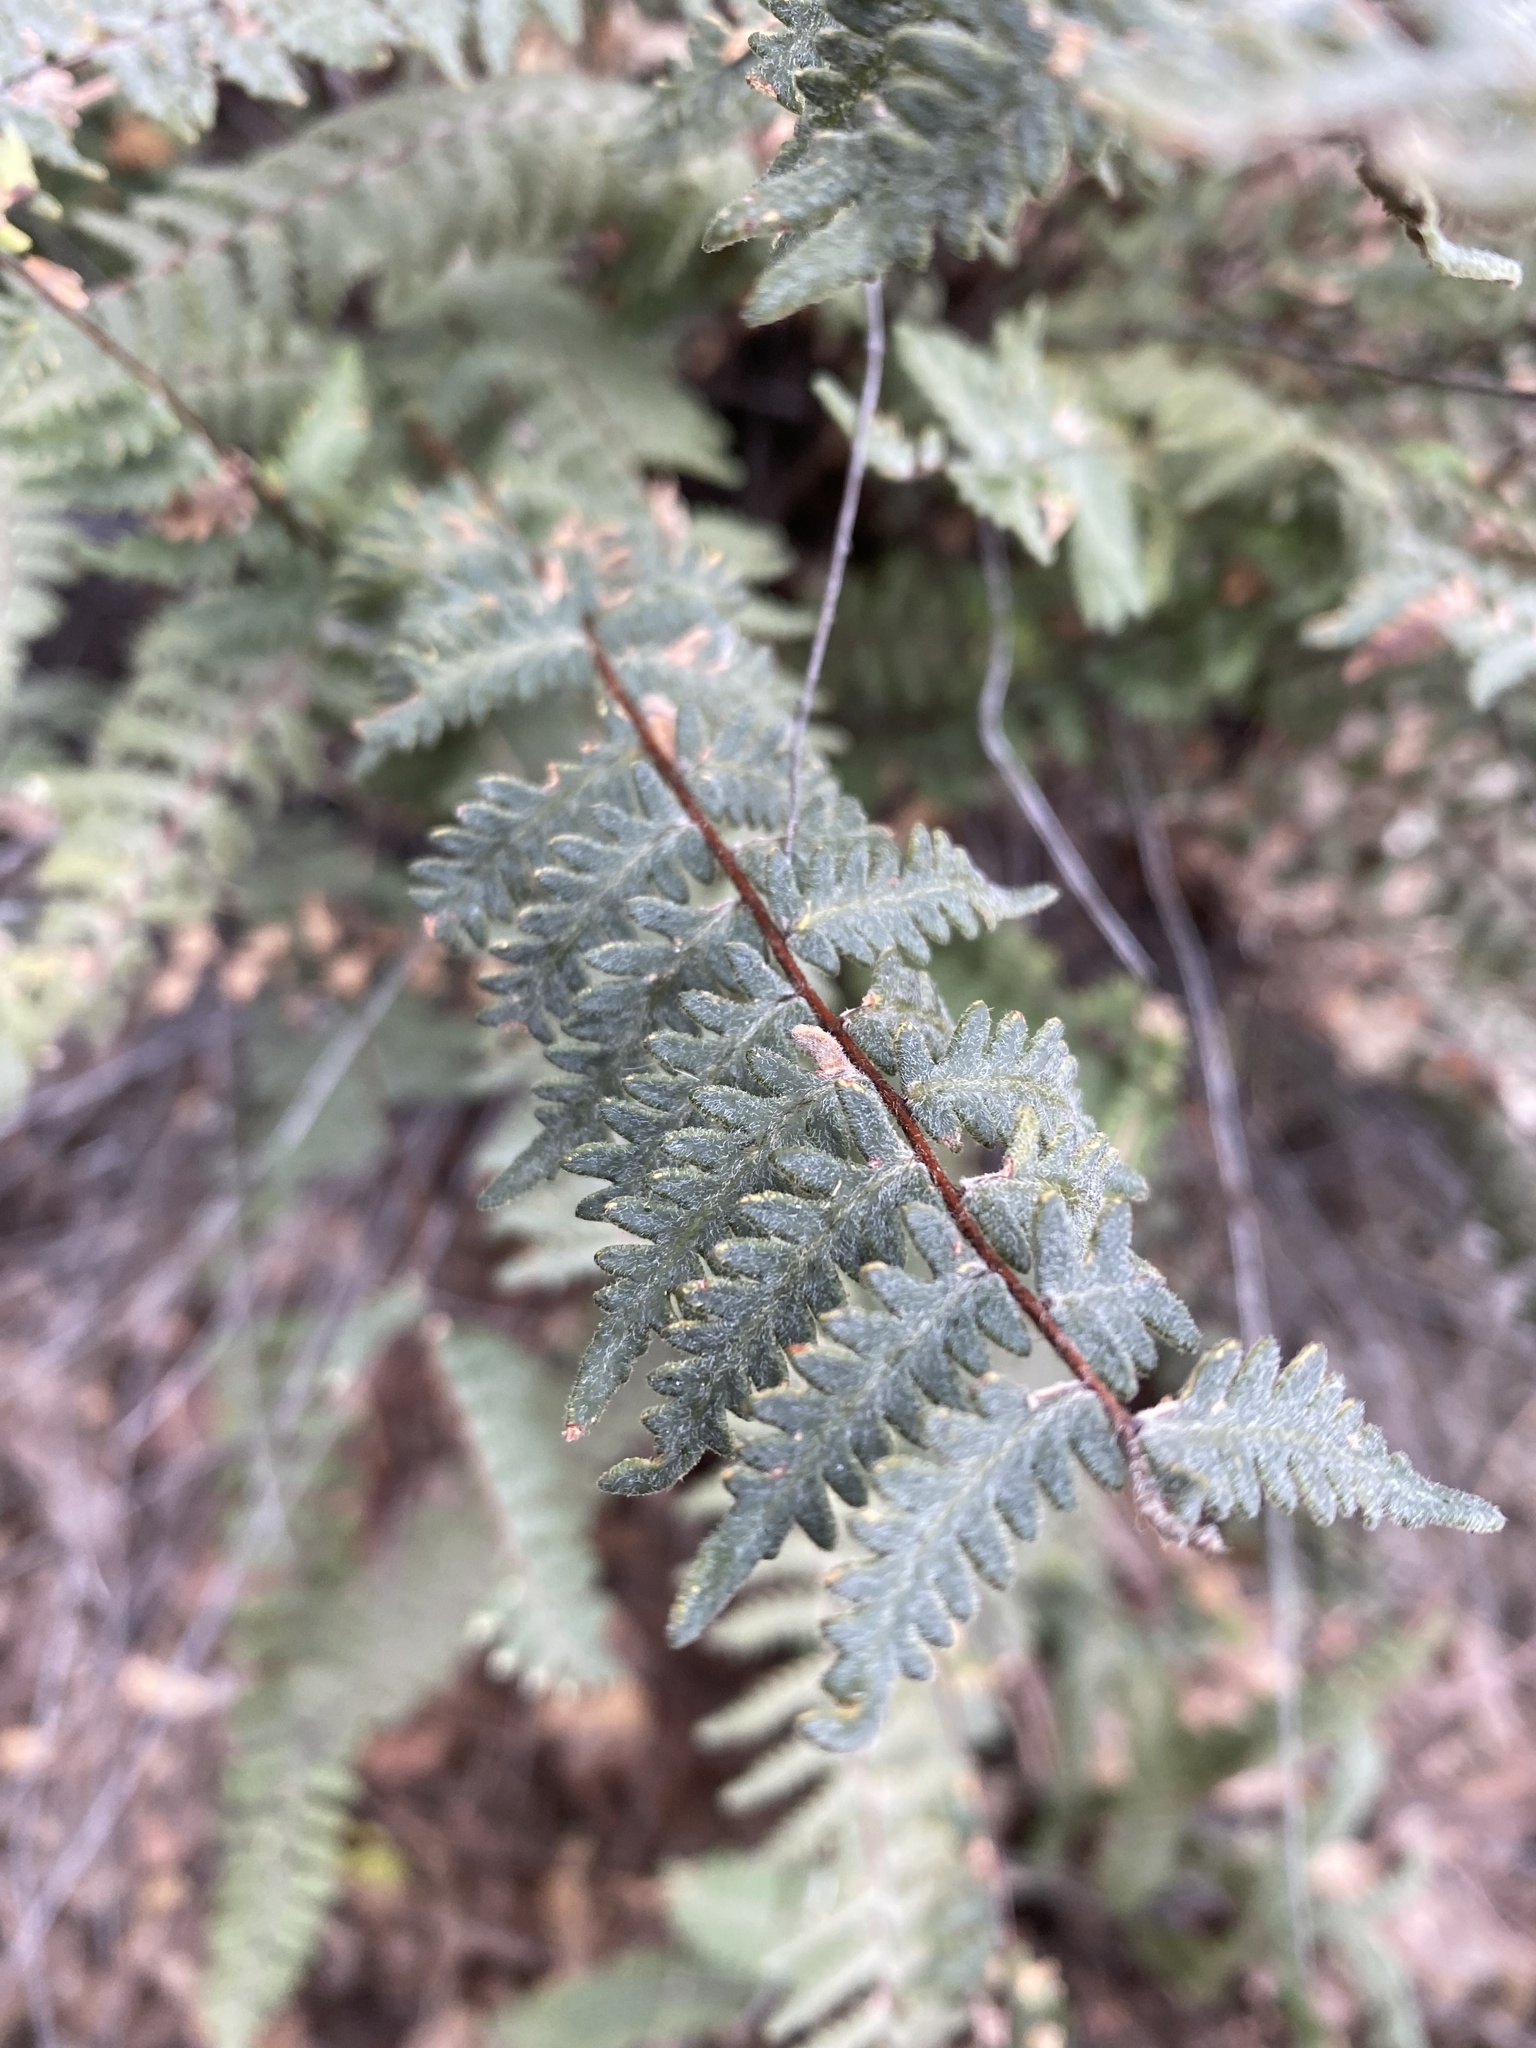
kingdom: Plantae
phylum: Tracheophyta
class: Polypodiopsida
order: Polypodiales
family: Pteridaceae
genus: Myriopteris
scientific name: Myriopteris aurea
